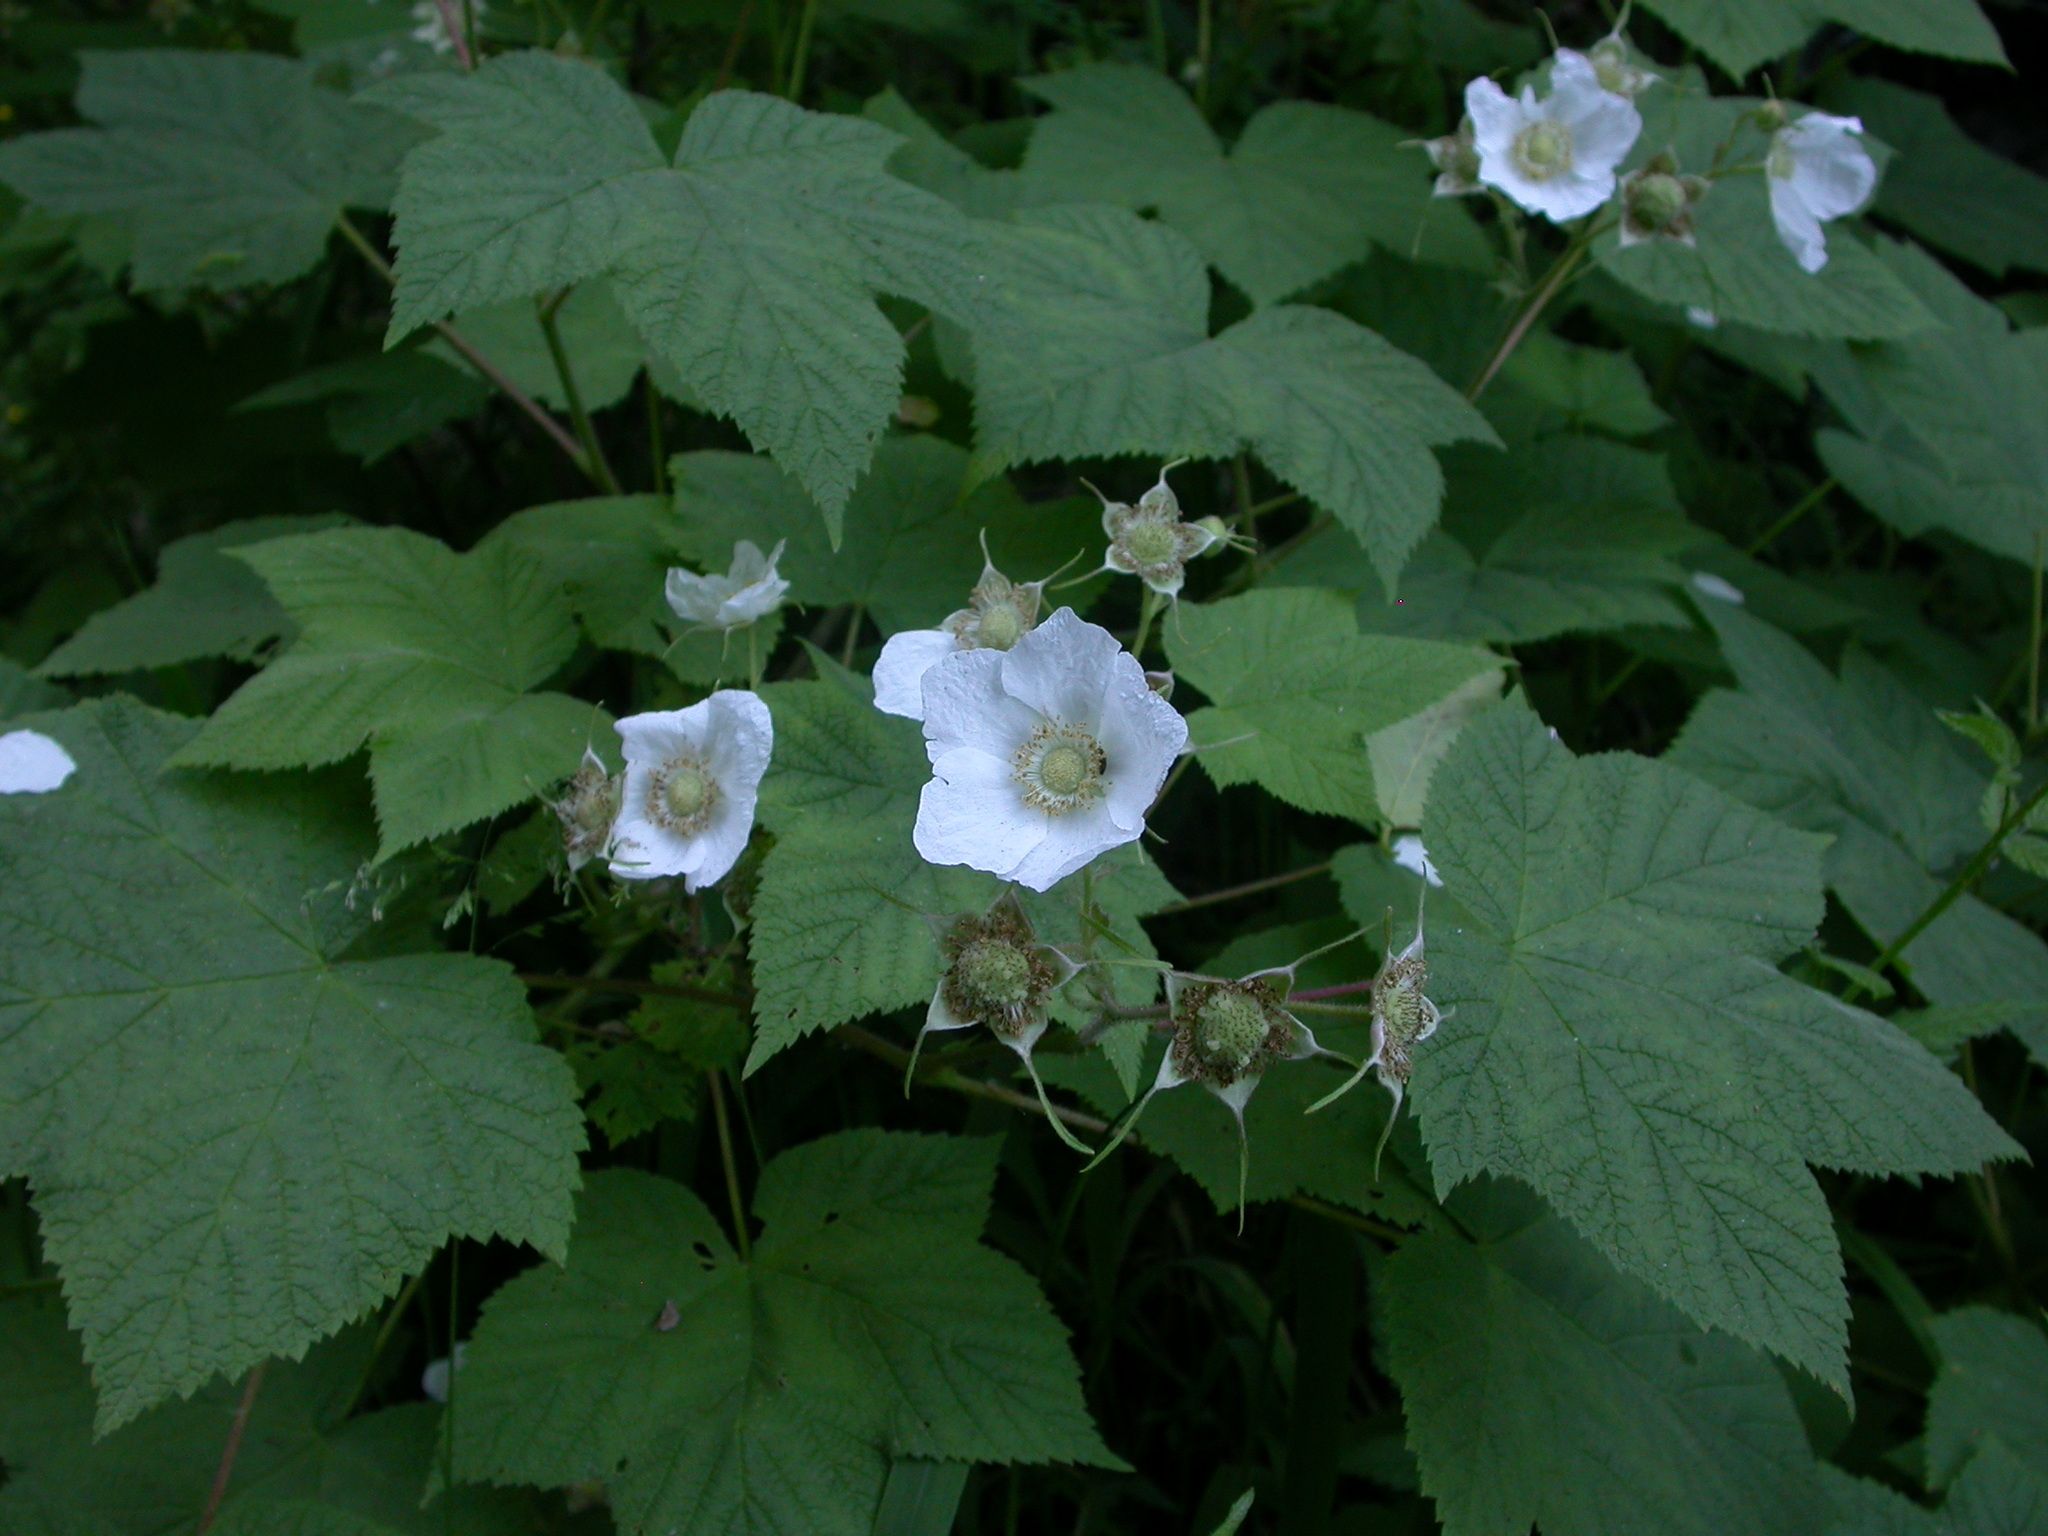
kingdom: Plantae
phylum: Tracheophyta
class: Magnoliopsida
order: Rosales
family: Rosaceae
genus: Rubus
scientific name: Rubus parviflorus
